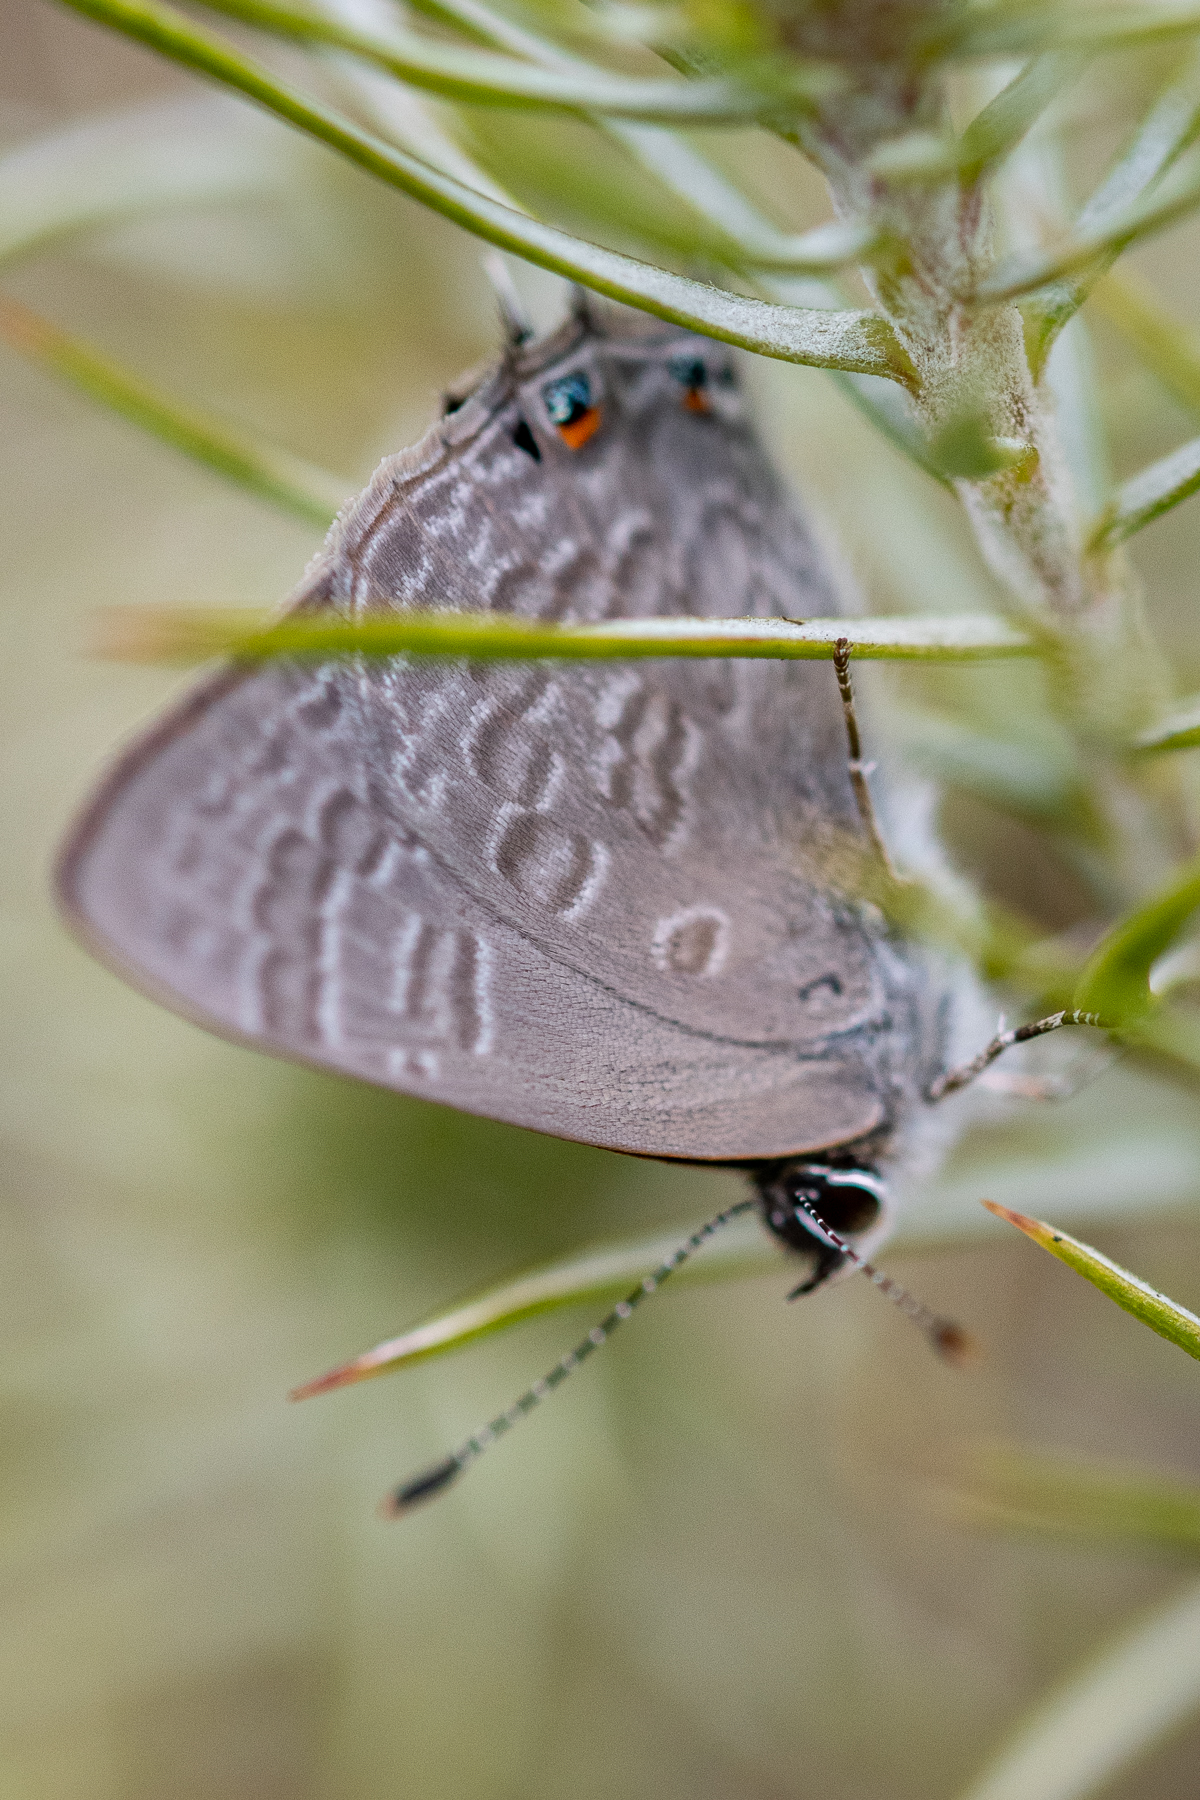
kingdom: Animalia
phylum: Arthropoda
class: Insecta
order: Lepidoptera
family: Lycaenidae
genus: Anthene
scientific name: Anthene definita
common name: Common ciliate blue
